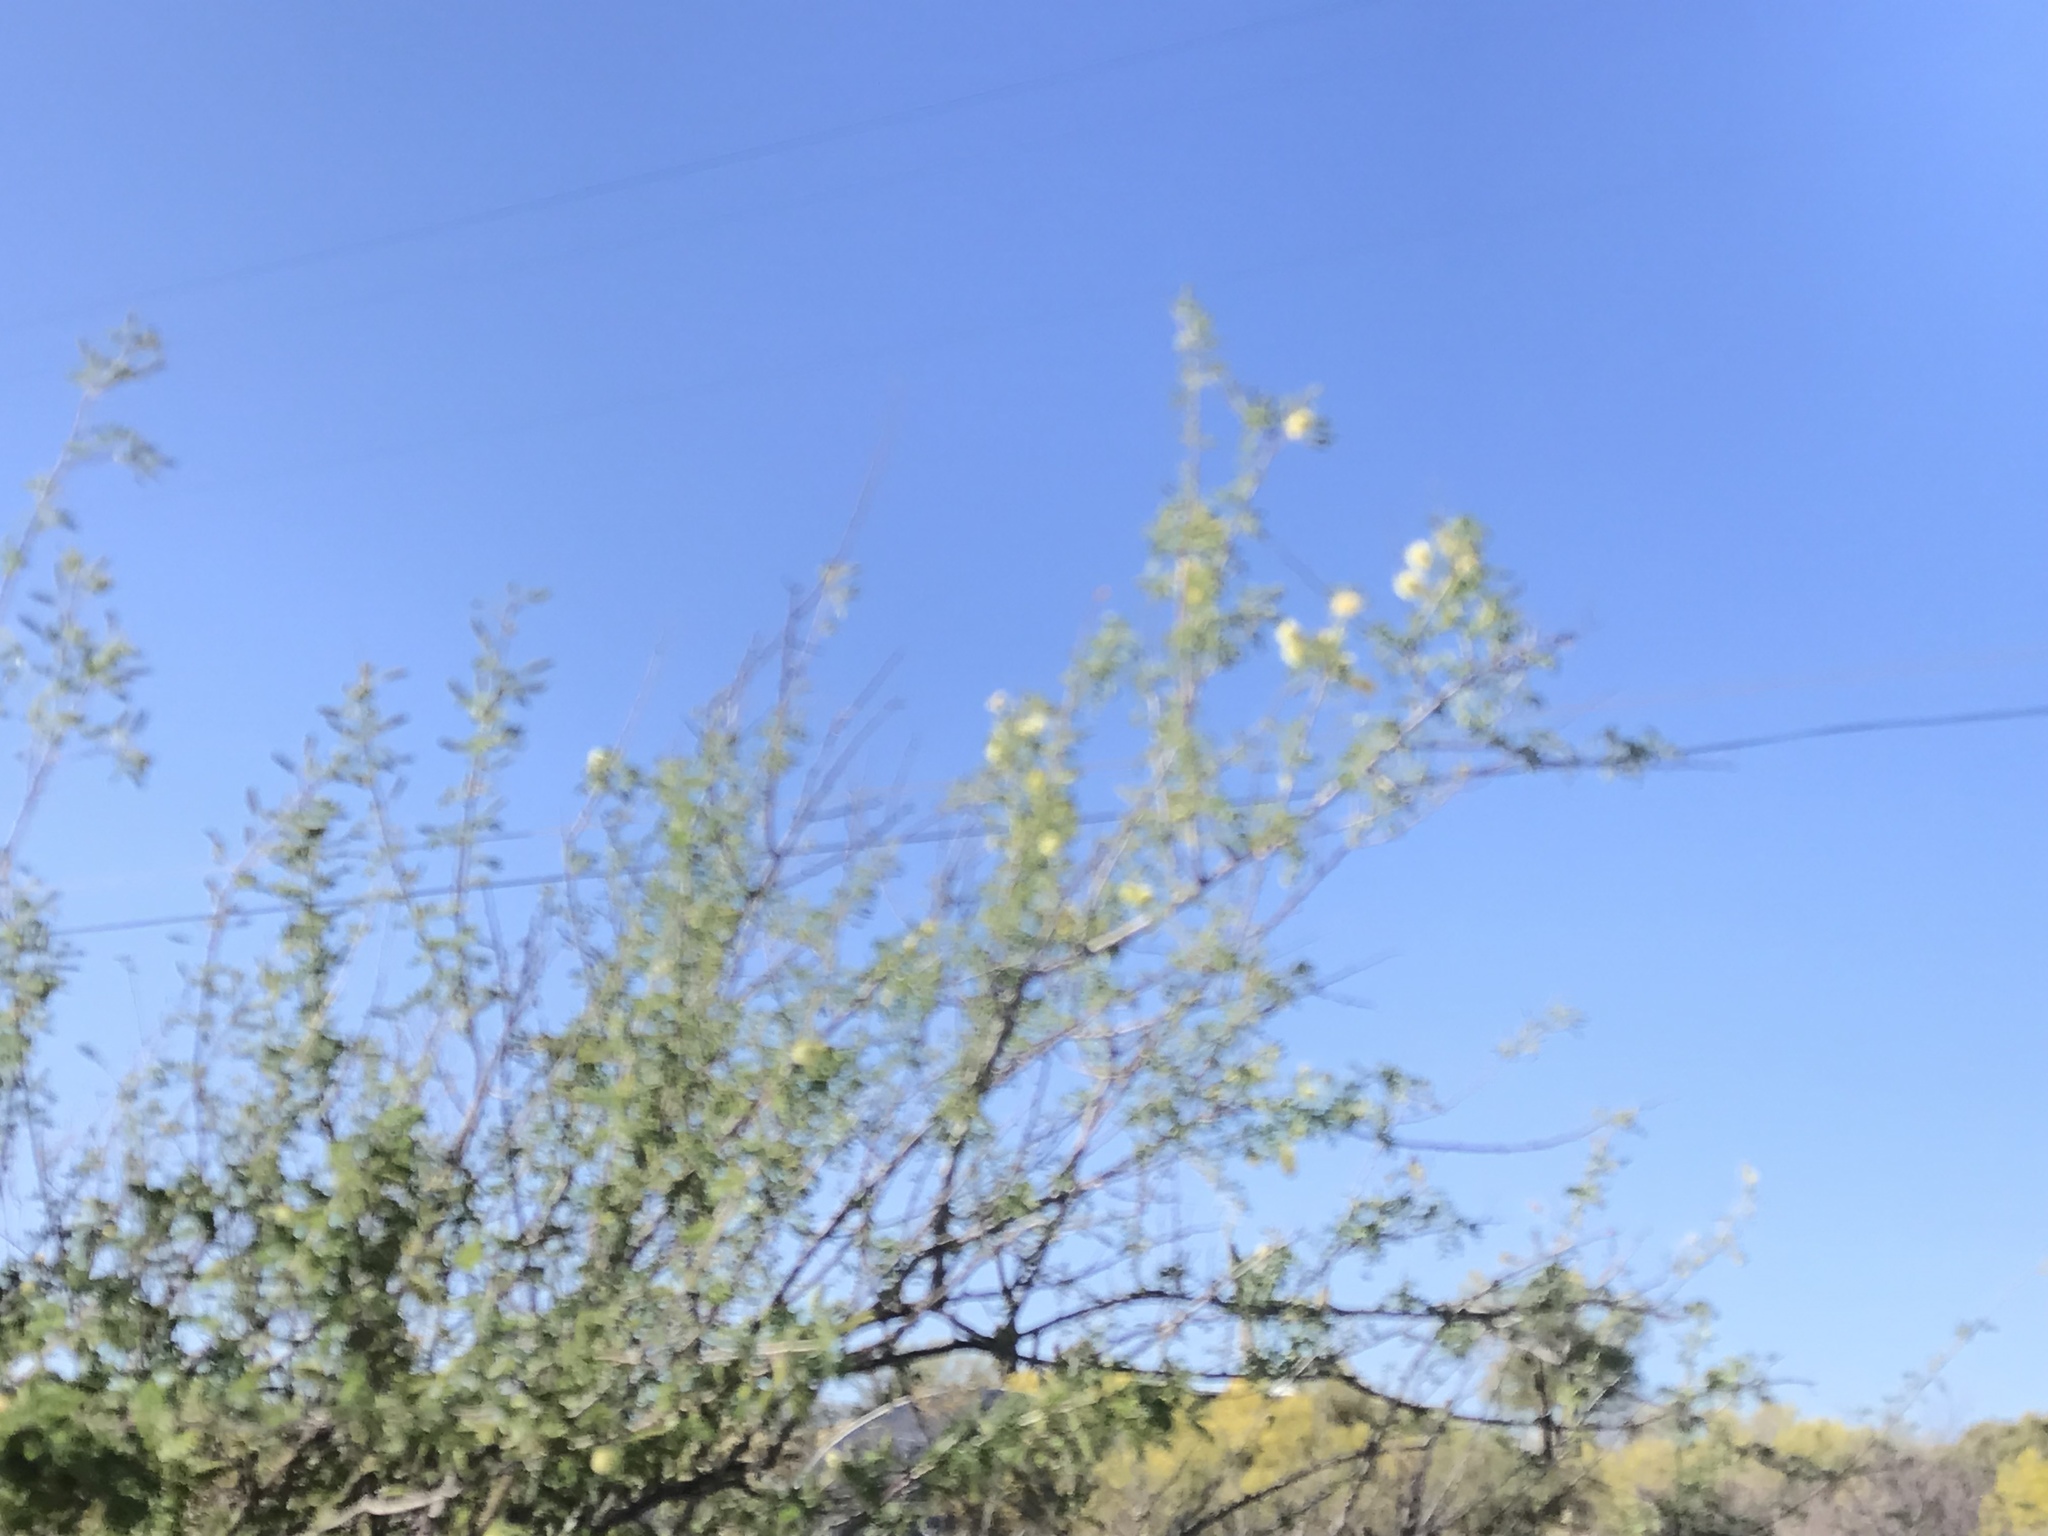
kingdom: Plantae
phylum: Tracheophyta
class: Magnoliopsida
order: Fabales
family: Fabaceae
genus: Vachellia
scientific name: Vachellia constricta
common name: Mescat acacia
